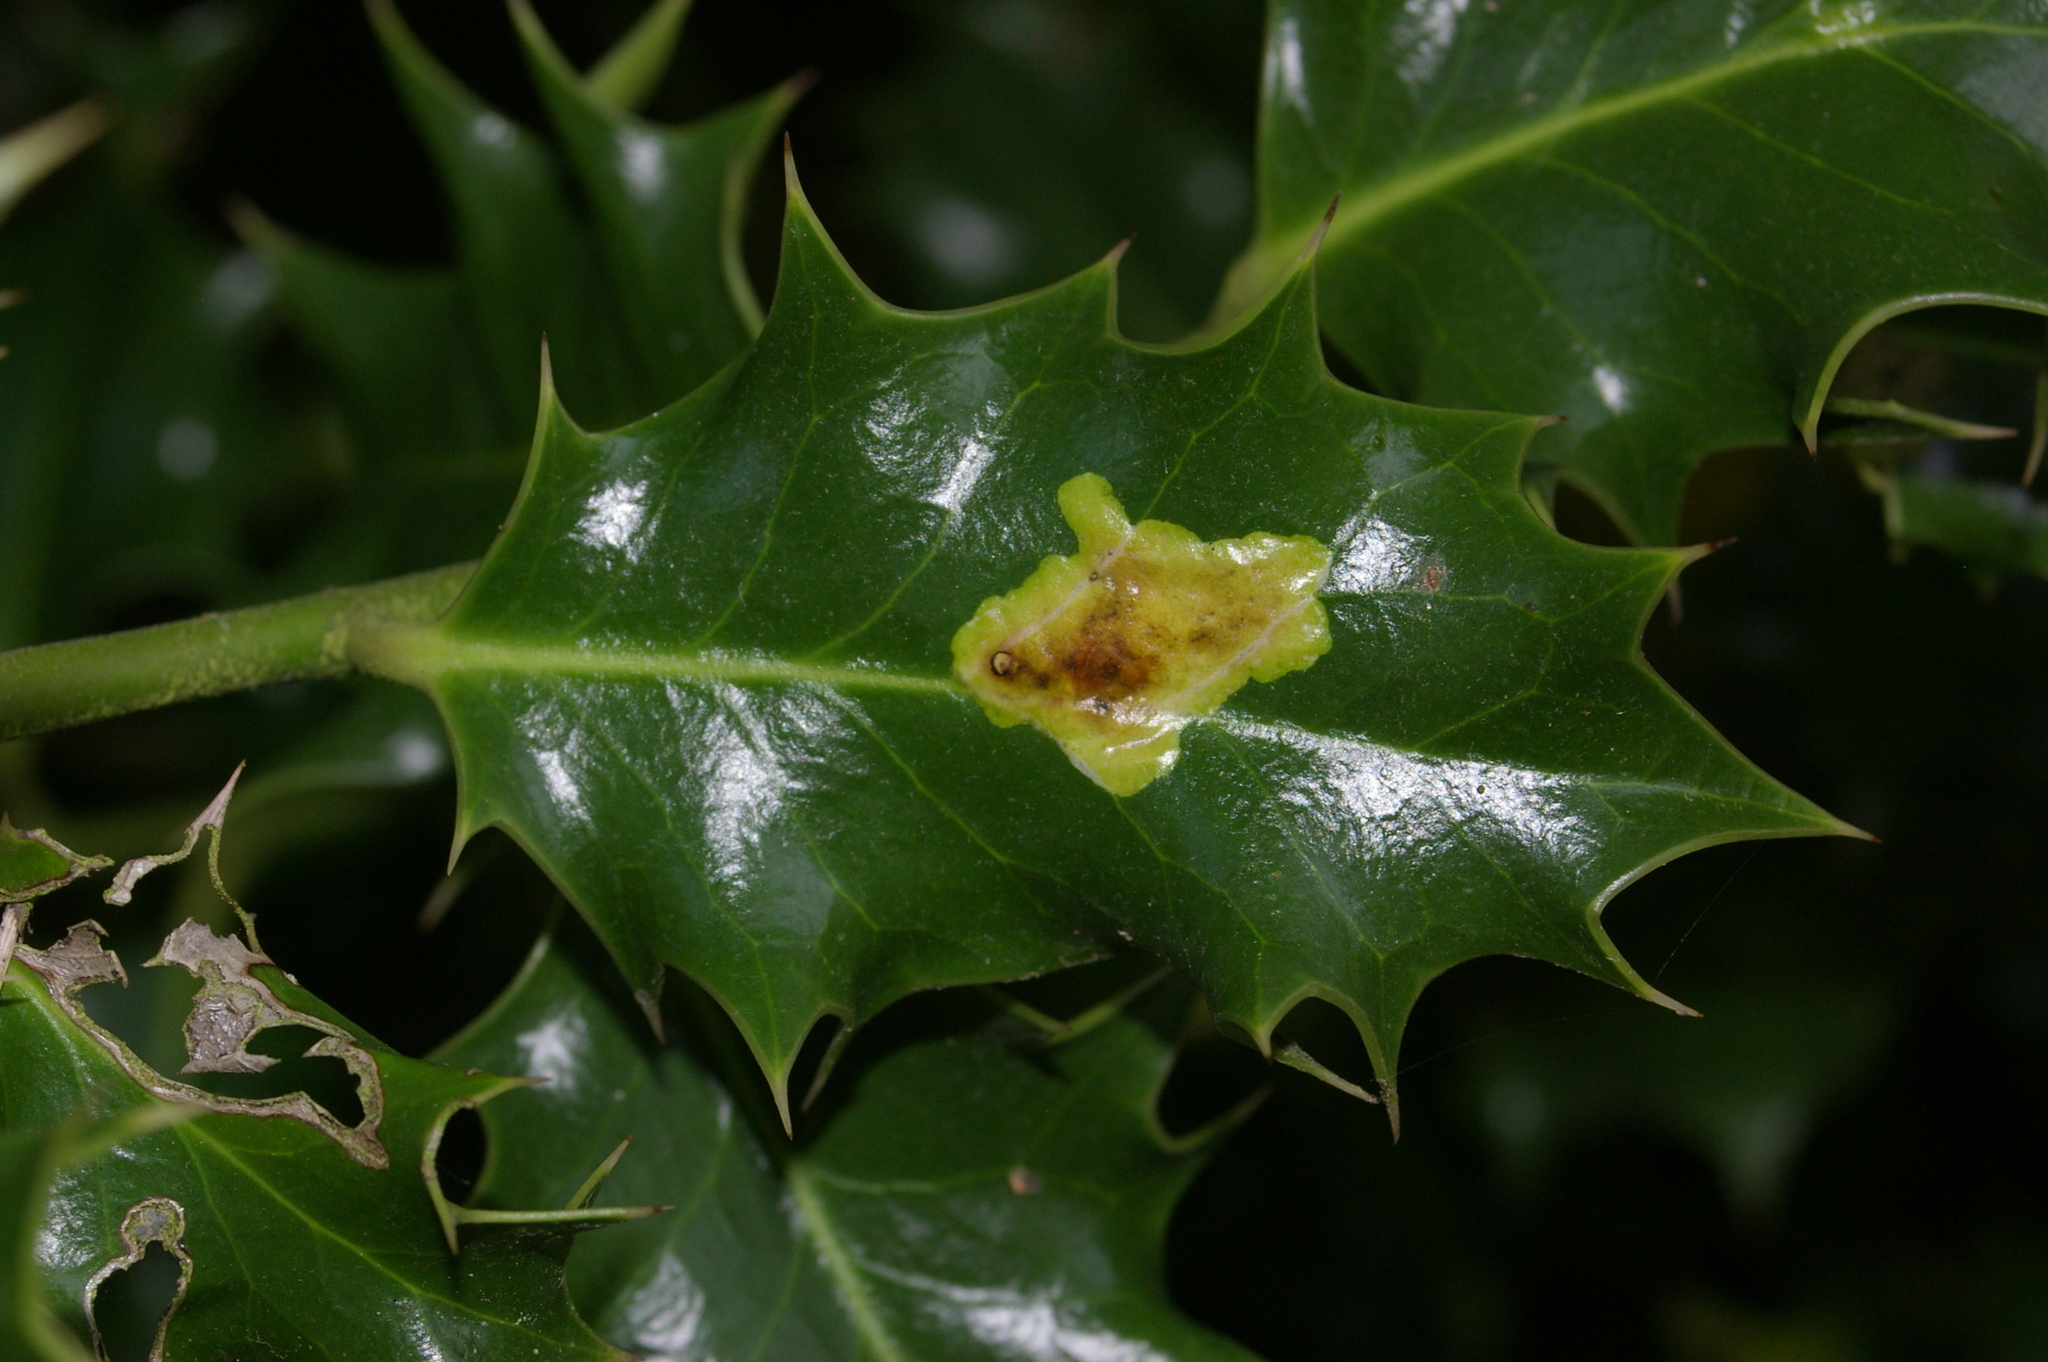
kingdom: Animalia
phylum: Arthropoda
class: Insecta
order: Diptera
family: Agromyzidae
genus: Phytomyza
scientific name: Phytomyza ilicis
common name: Holly leafminer
